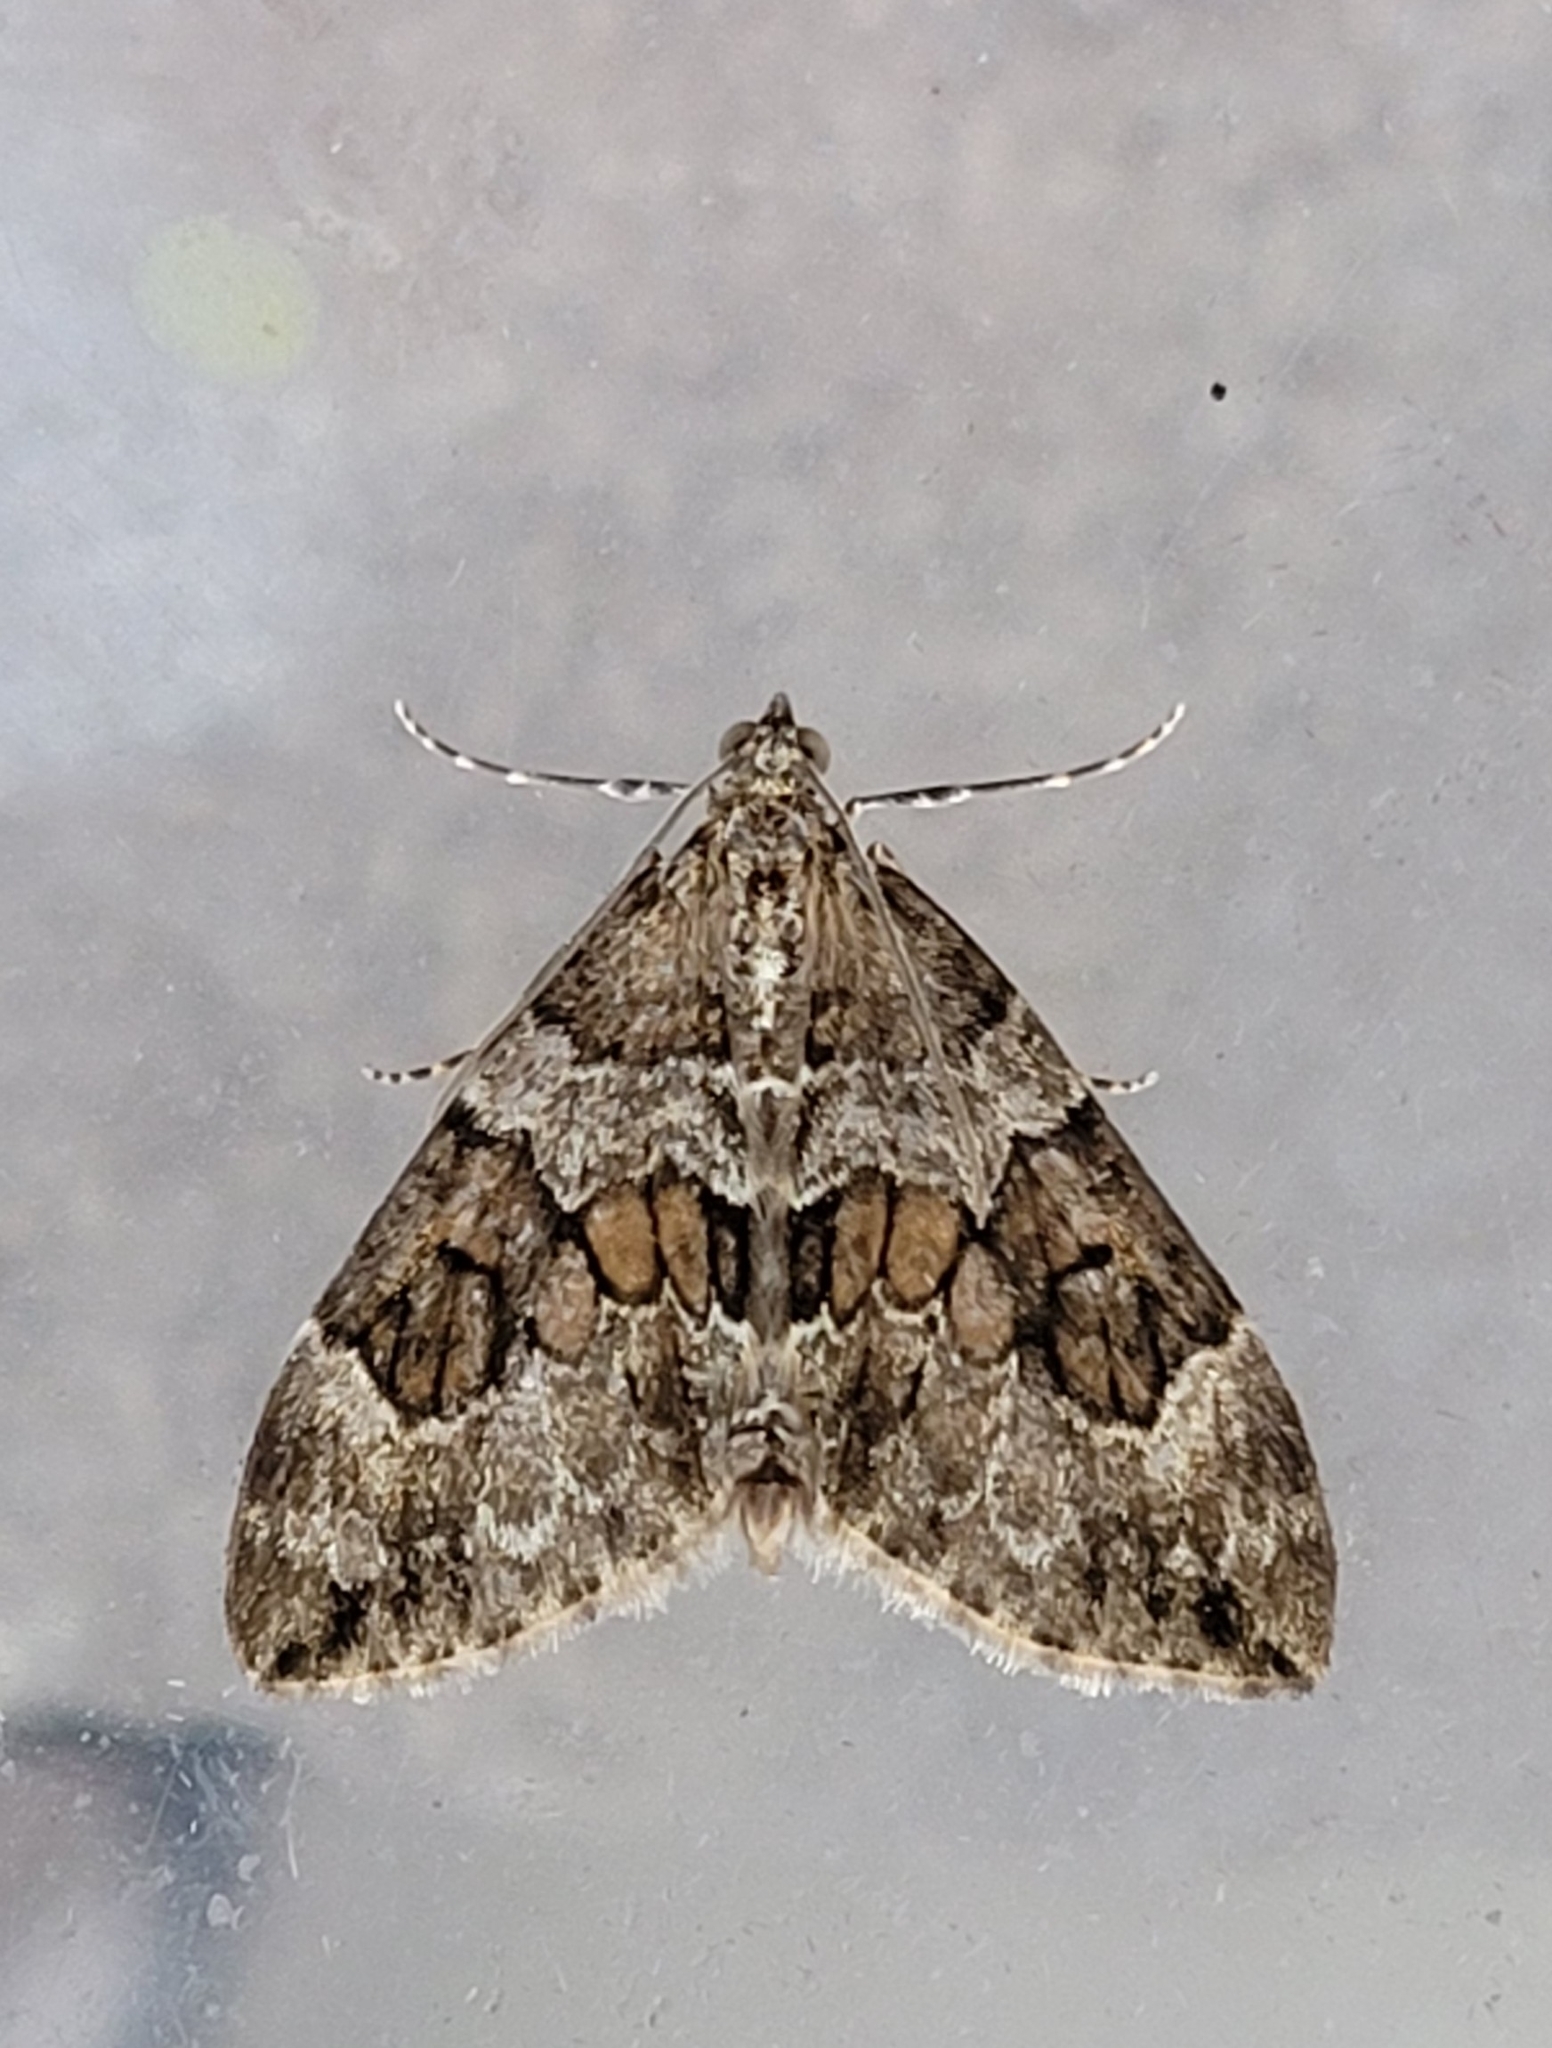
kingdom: Animalia
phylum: Arthropoda
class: Insecta
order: Lepidoptera
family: Geometridae
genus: Thera
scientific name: Thera britannica
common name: Spruce carpet
